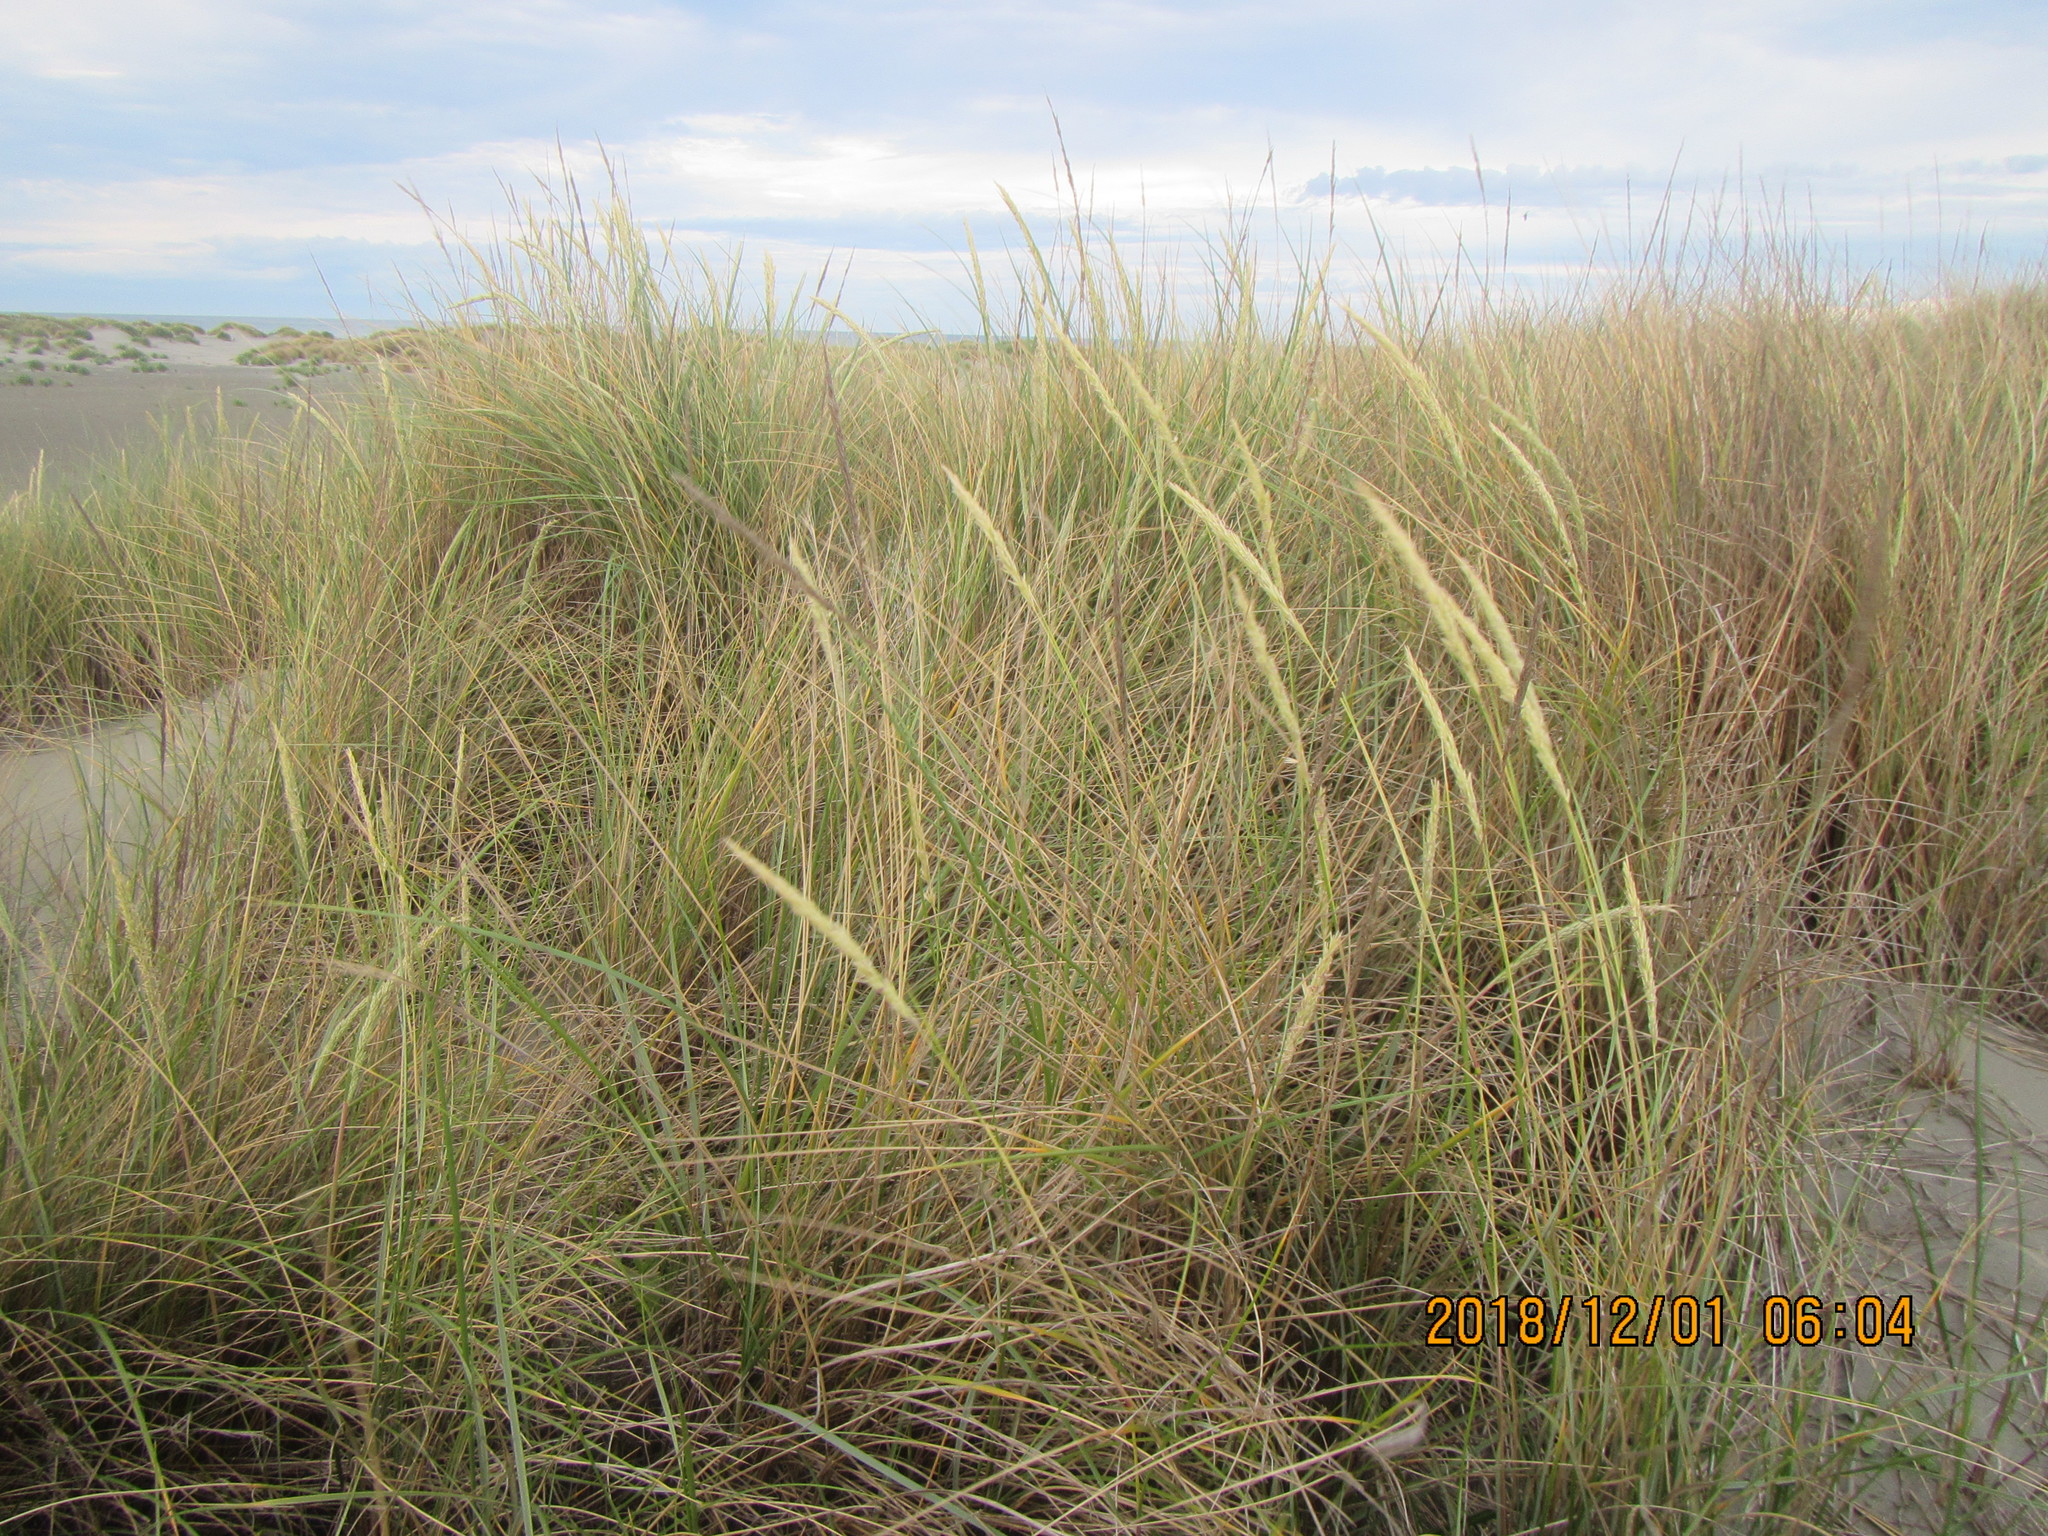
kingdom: Plantae
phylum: Tracheophyta
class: Liliopsida
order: Poales
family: Poaceae
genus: Calamagrostis
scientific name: Calamagrostis arenaria
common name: European beachgrass
